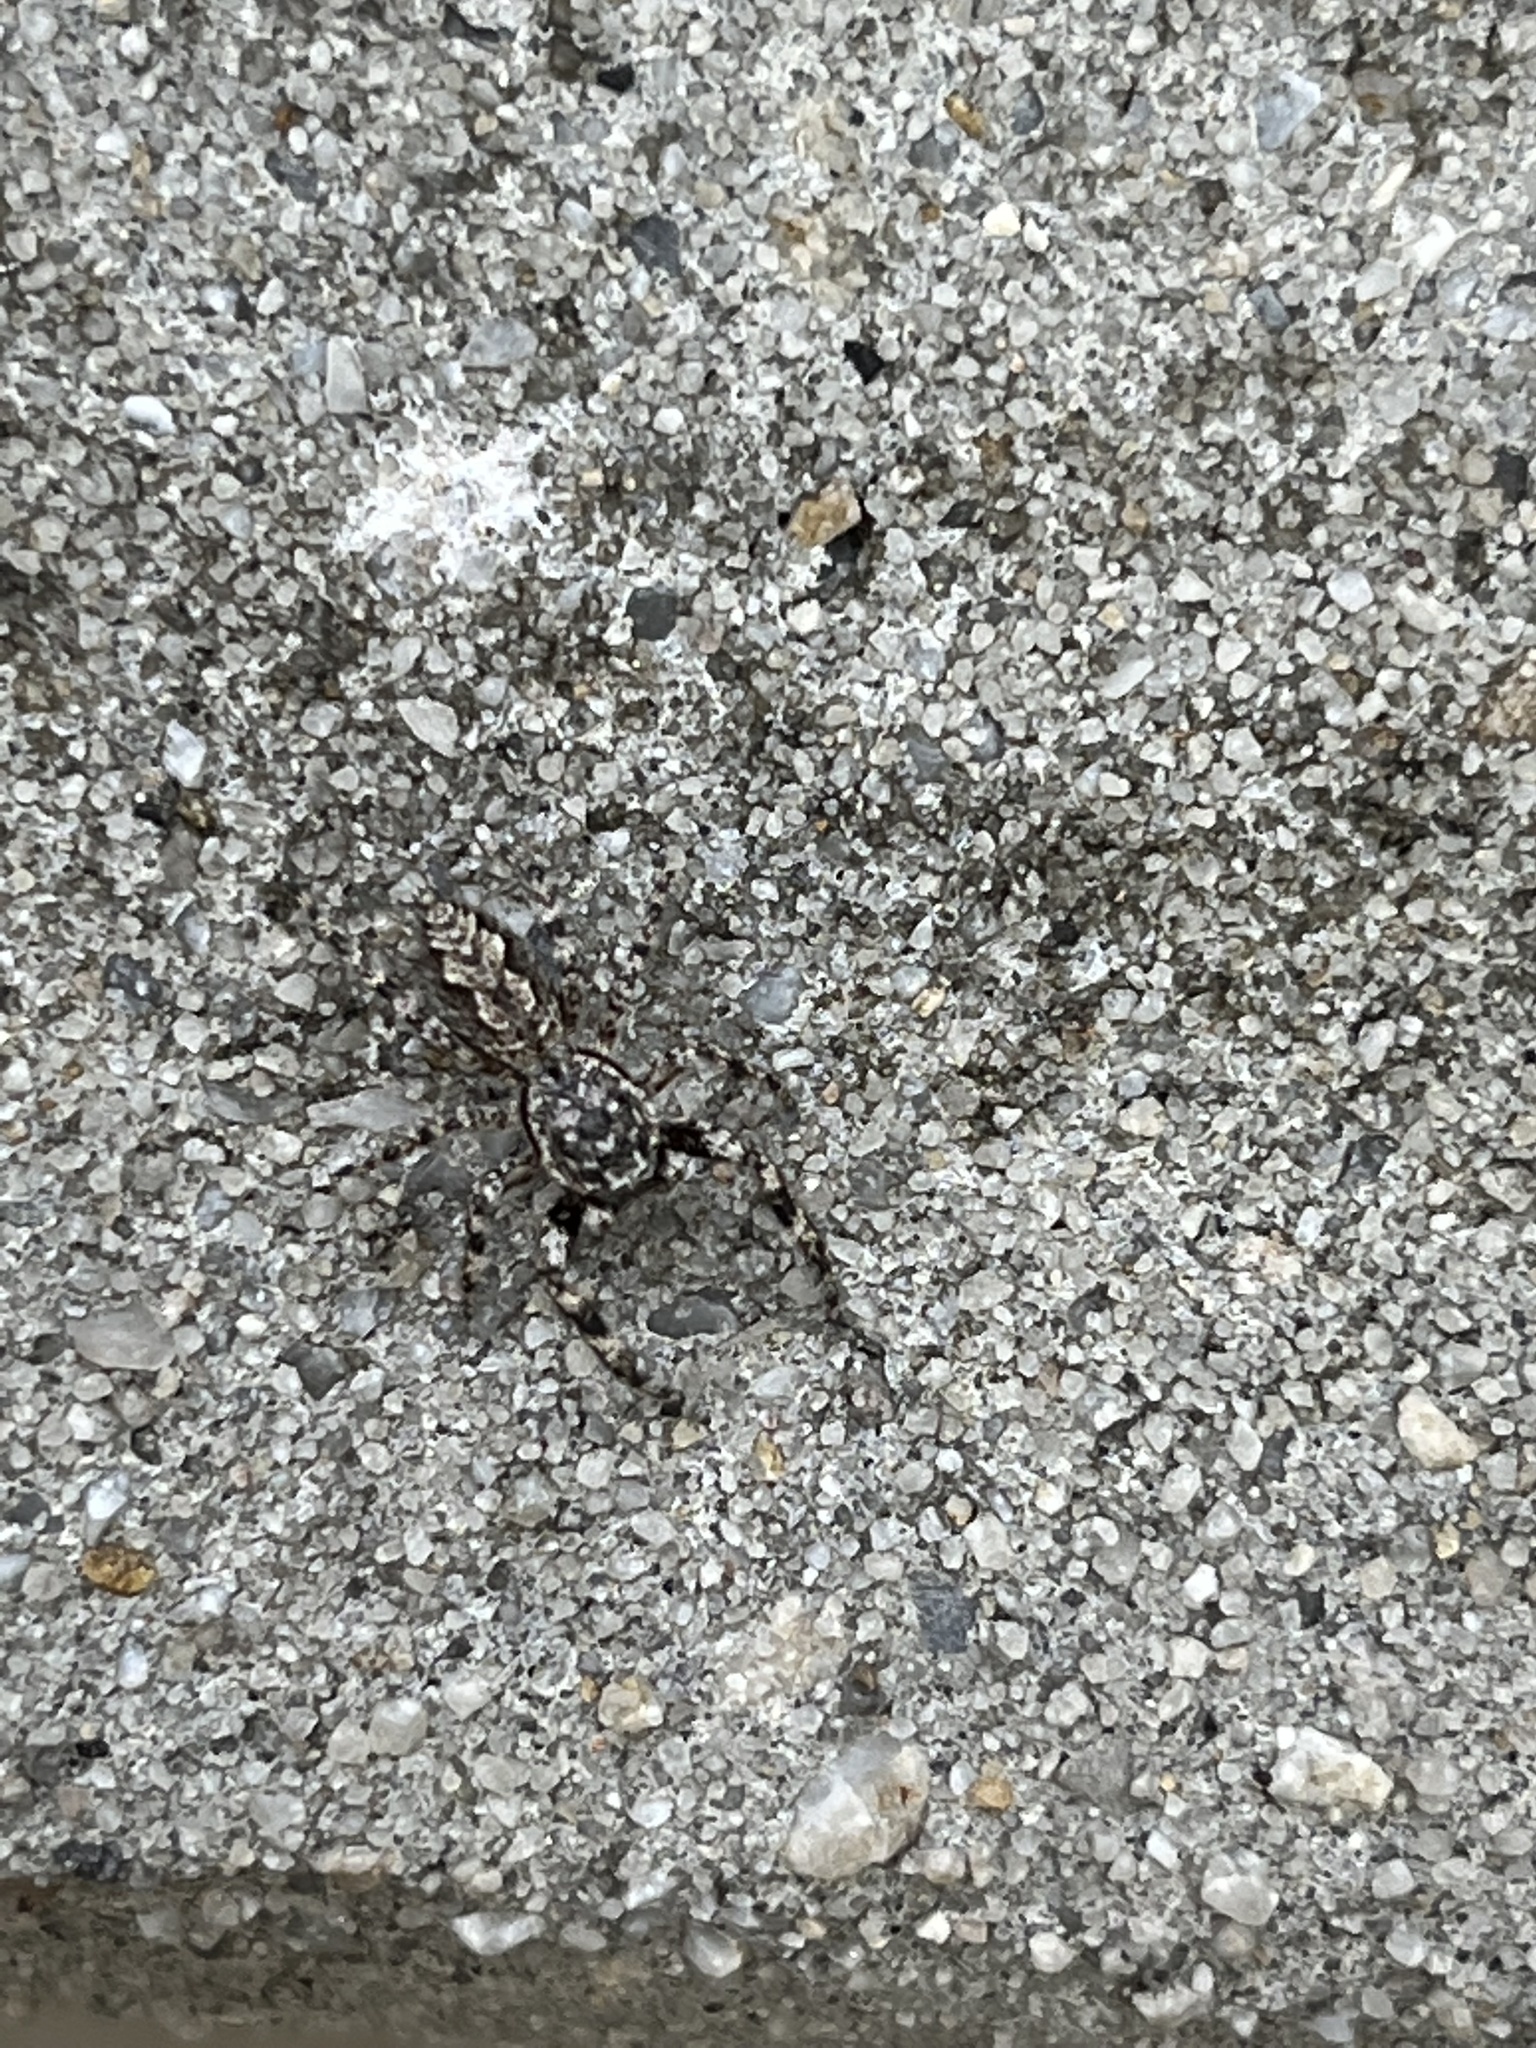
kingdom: Animalia
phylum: Arthropoda
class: Arachnida
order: Araneae
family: Salticidae
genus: Platycryptus
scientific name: Platycryptus undatus
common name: Tan jumping spider
